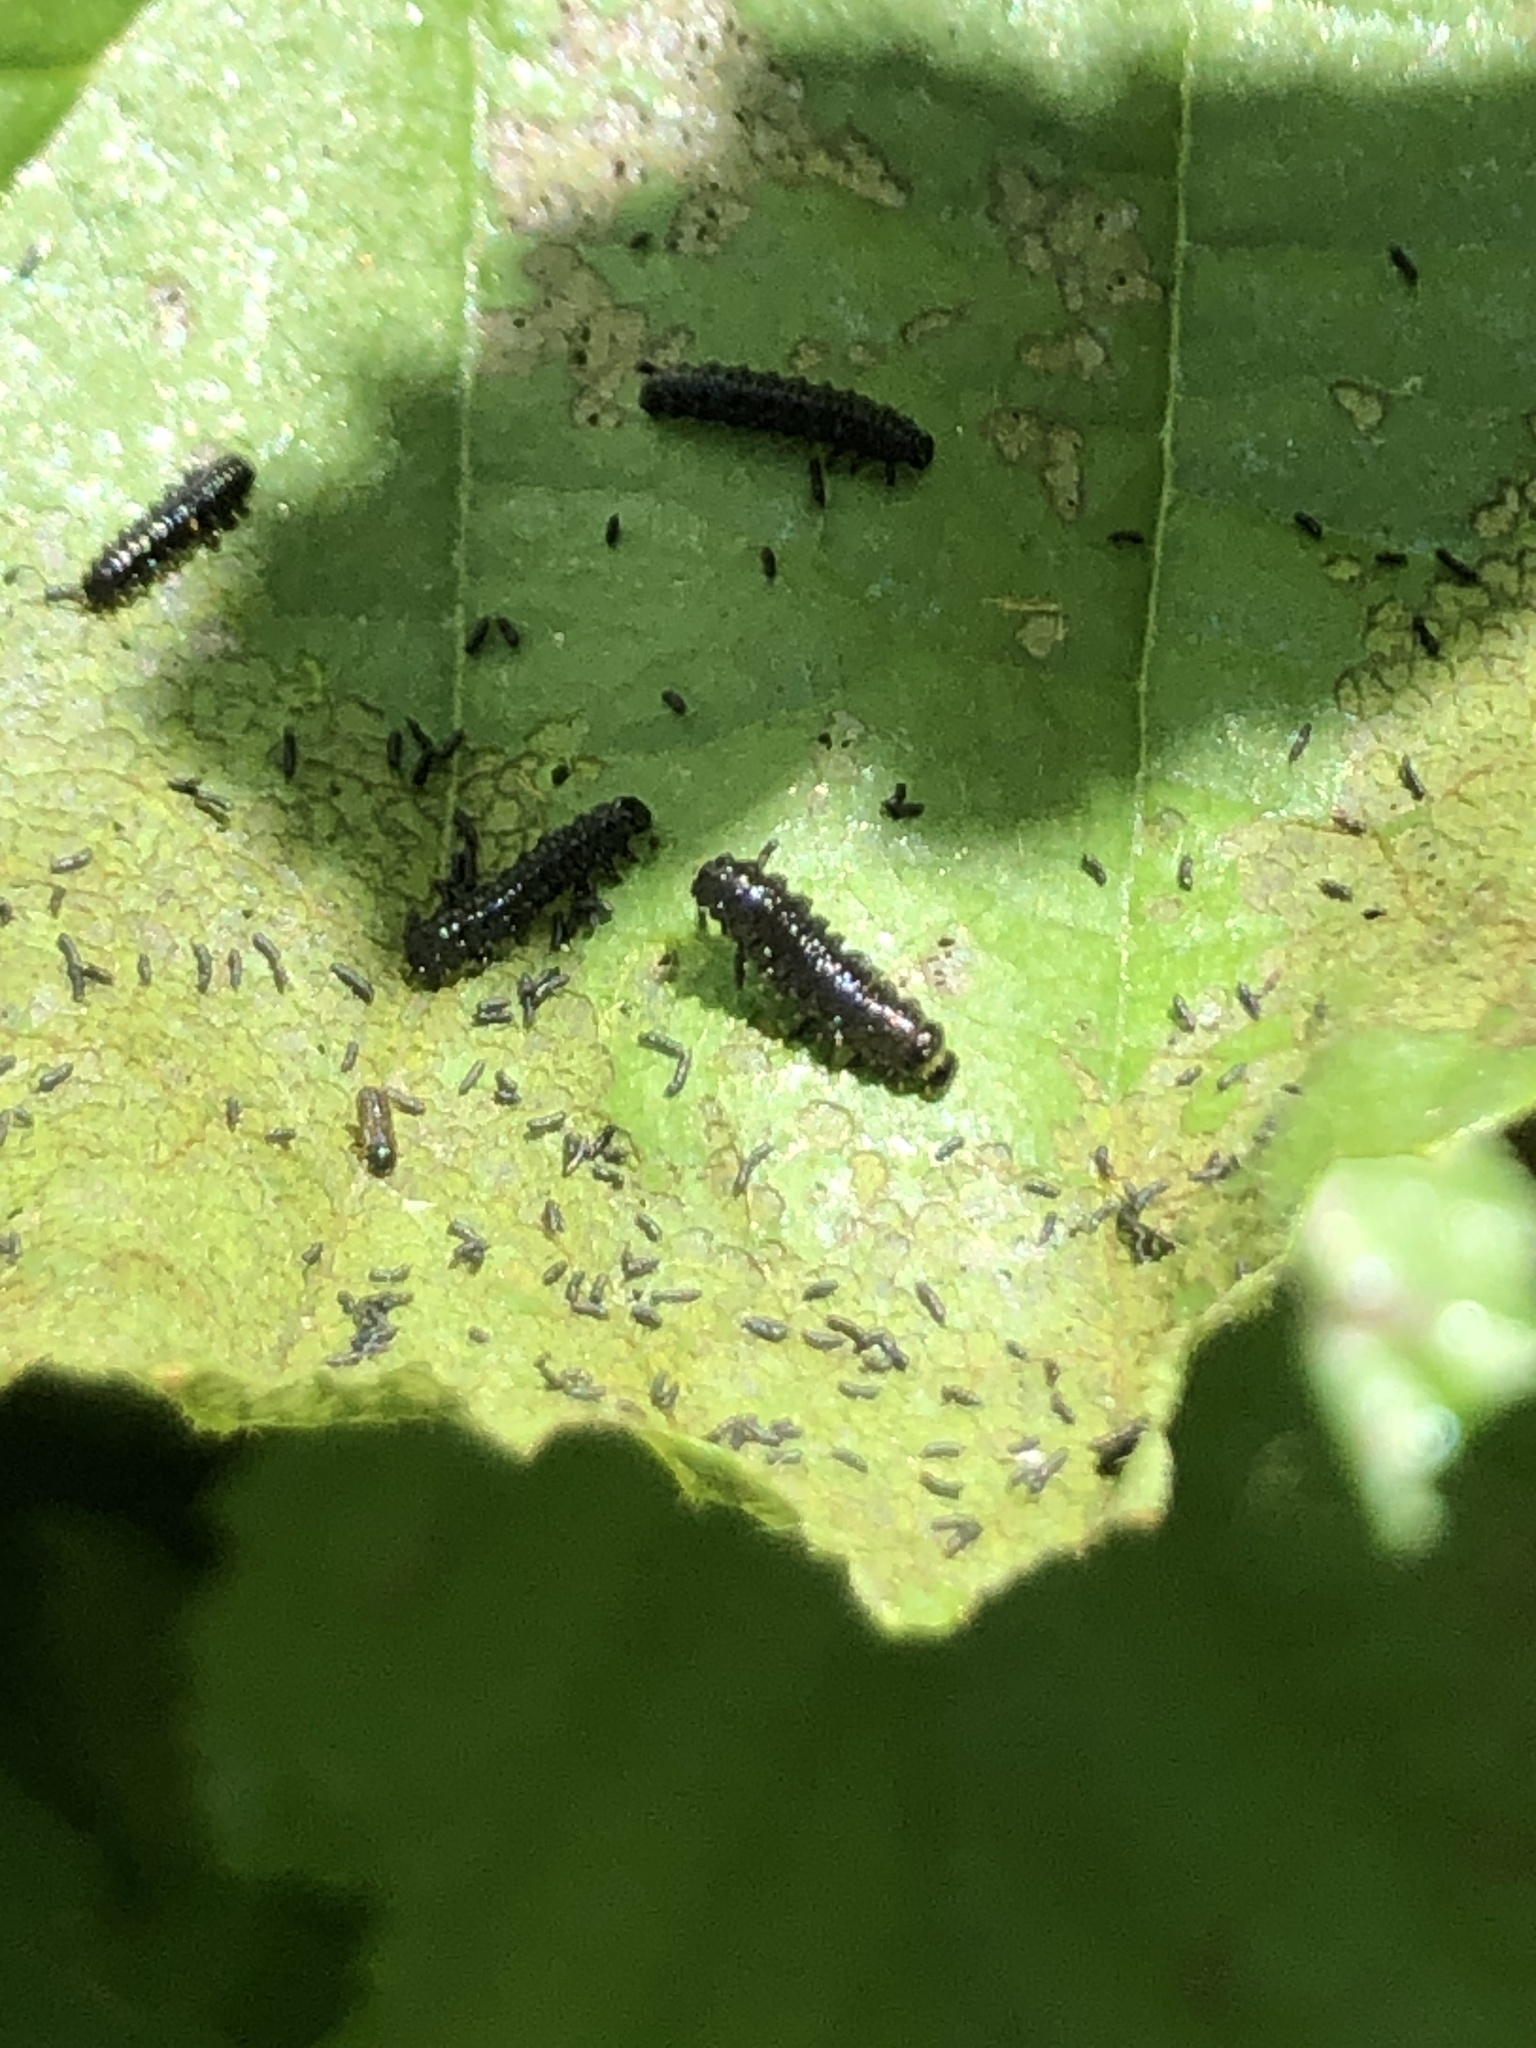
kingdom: Animalia
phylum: Arthropoda
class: Insecta
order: Coleoptera
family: Chrysomelidae
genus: Agelastica
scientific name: Agelastica alni
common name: Alder leaf beetle
